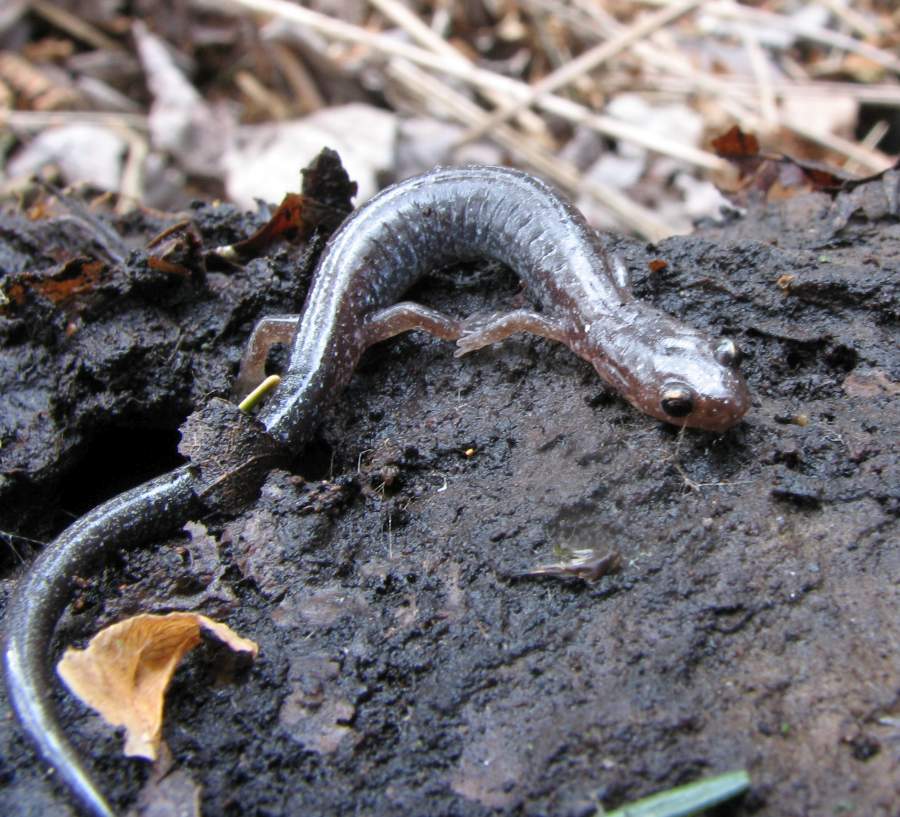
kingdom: Animalia
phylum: Chordata
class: Amphibia
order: Caudata
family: Plethodontidae
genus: Plethodon
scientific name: Plethodon cinereus
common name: Redback salamander
